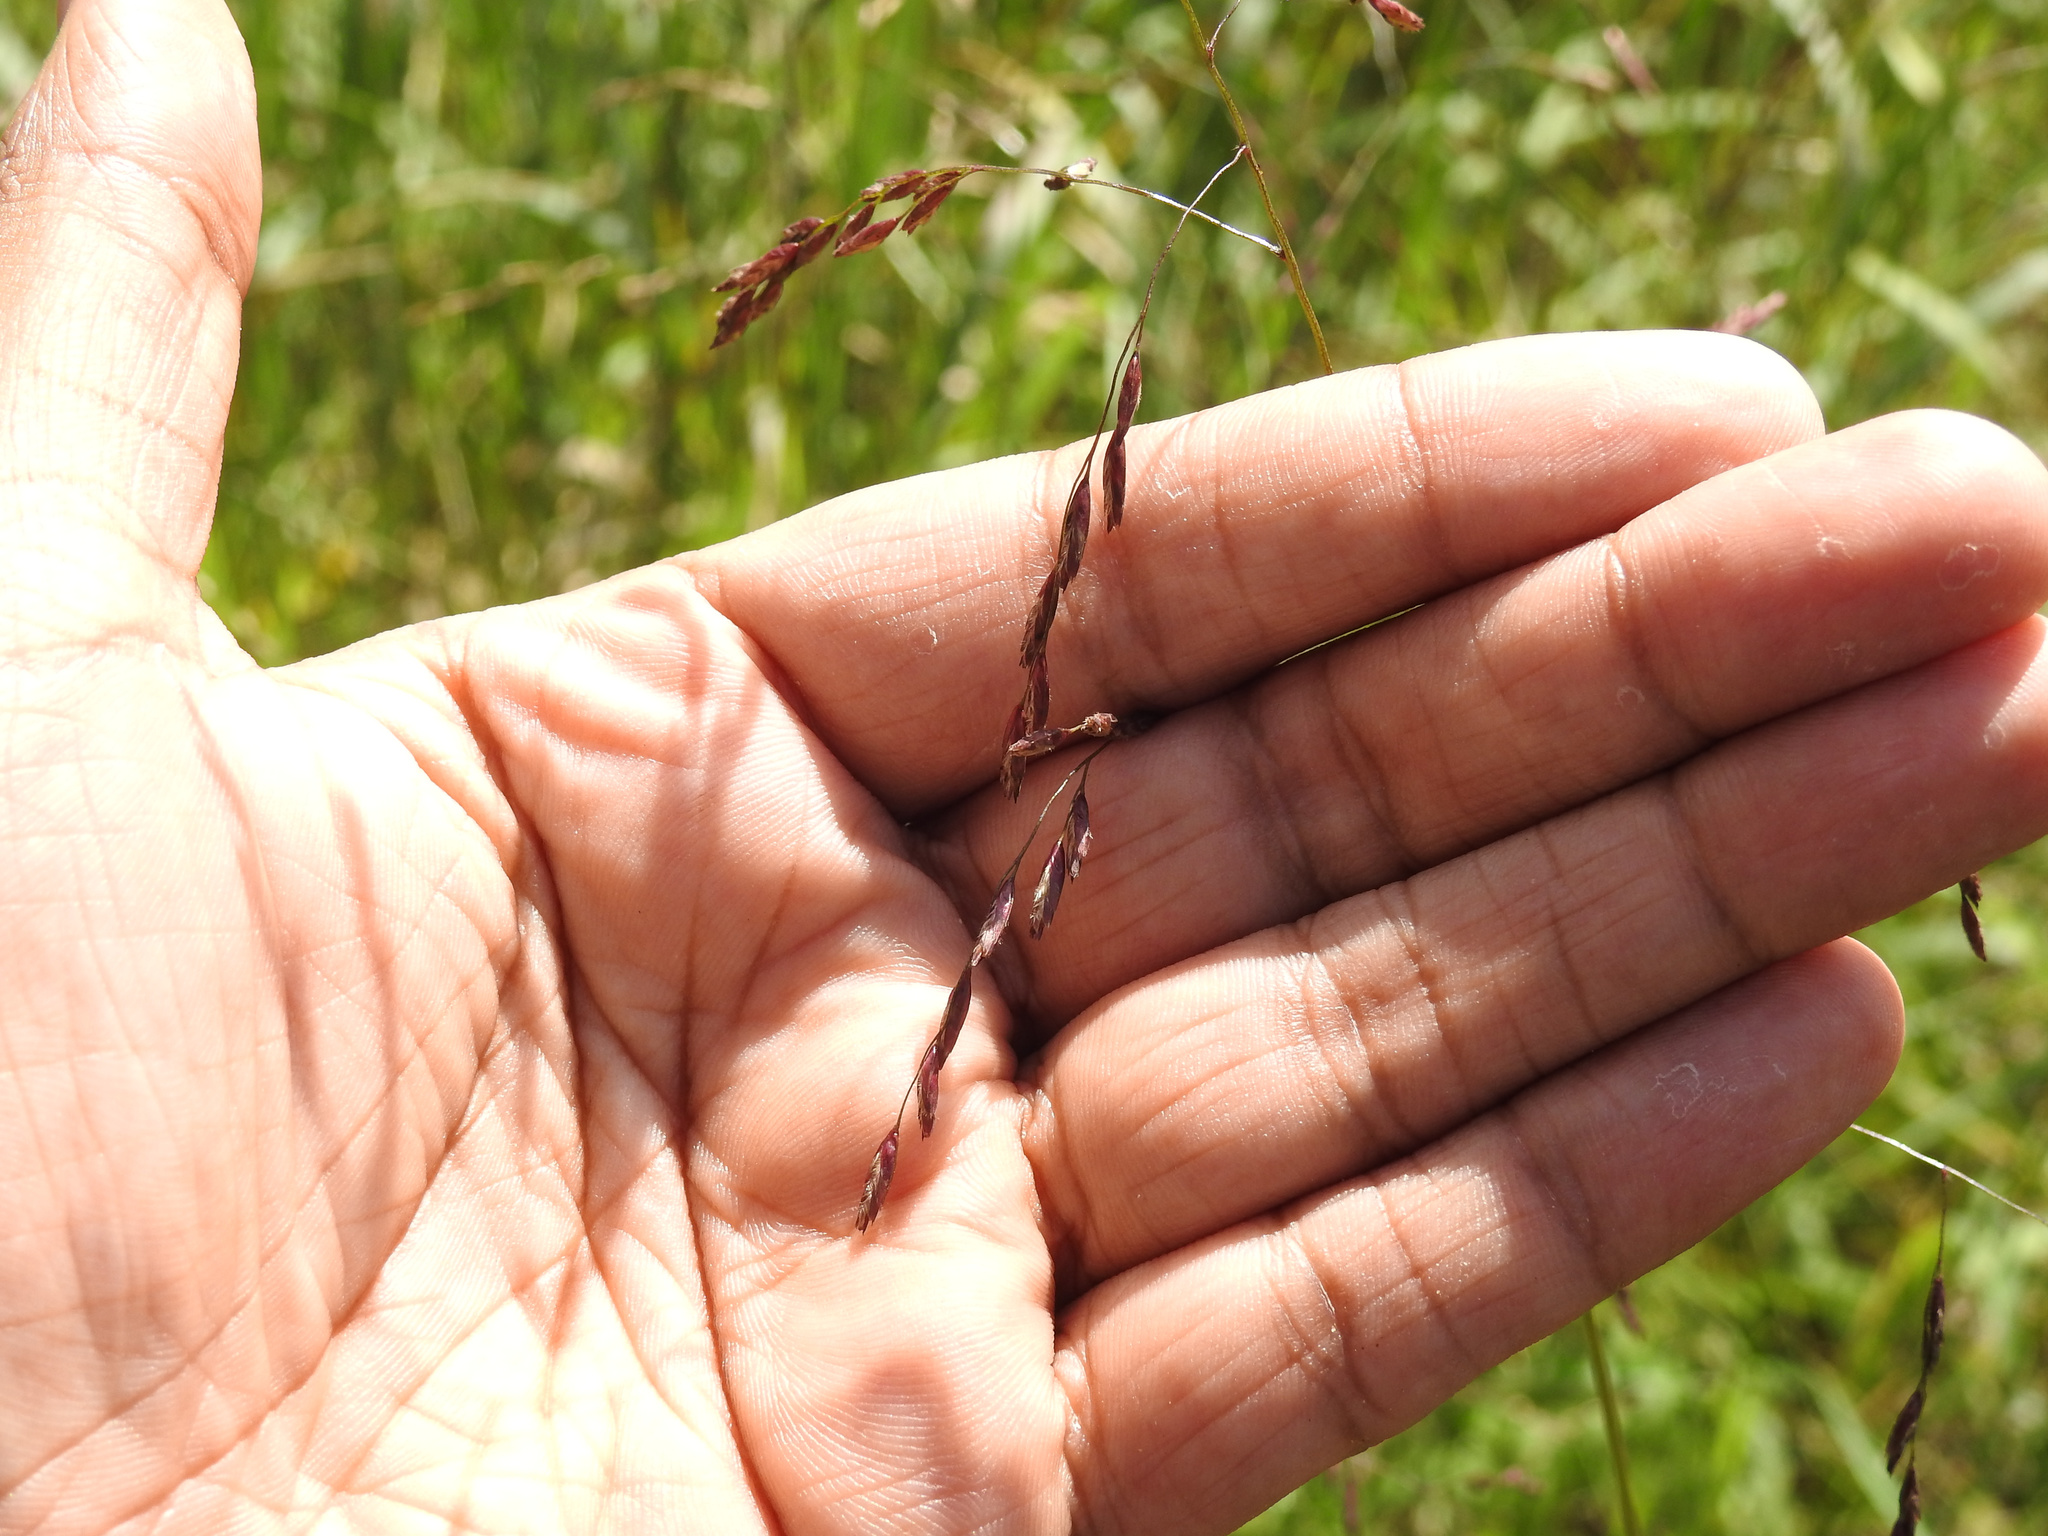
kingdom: Plantae
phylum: Tracheophyta
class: Liliopsida
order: Poales
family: Poaceae
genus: Tridens
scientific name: Tridens flavus
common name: Purpletop
